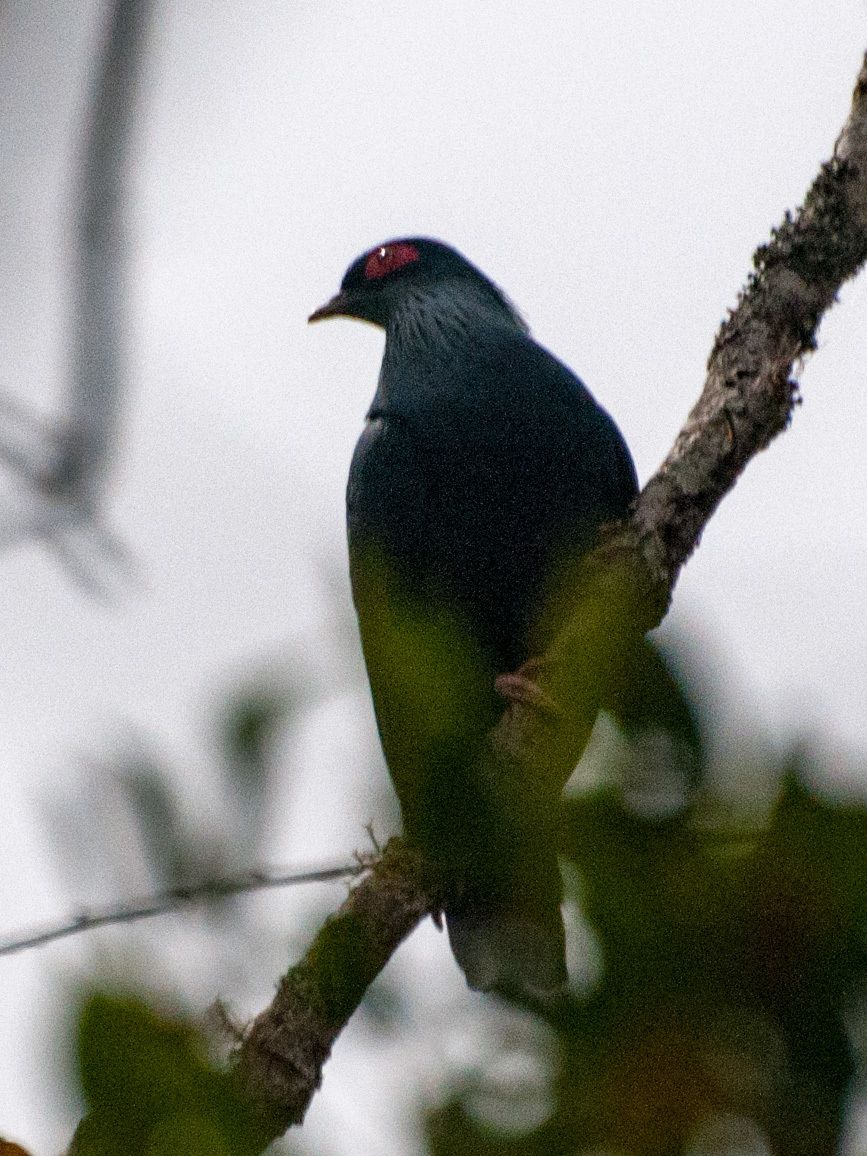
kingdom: Animalia
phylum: Chordata
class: Aves
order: Columbiformes
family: Columbidae
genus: Alectroenas
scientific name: Alectroenas madagascariensis
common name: Madagascar blue pigeon
